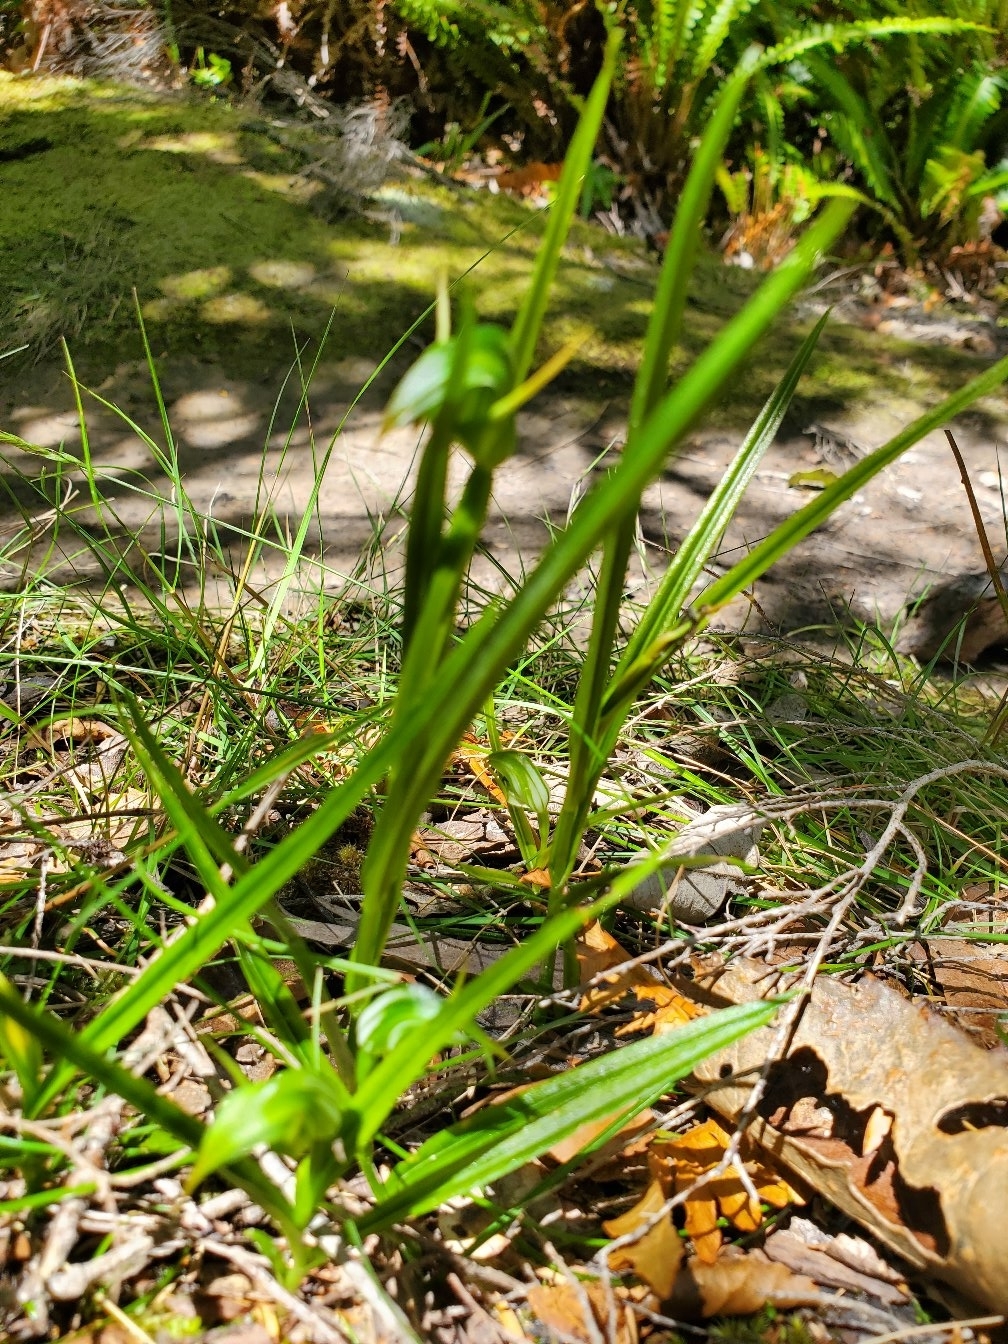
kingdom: Plantae
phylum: Tracheophyta
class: Liliopsida
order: Asparagales
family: Orchidaceae
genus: Pterostylis
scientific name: Pterostylis graminea
